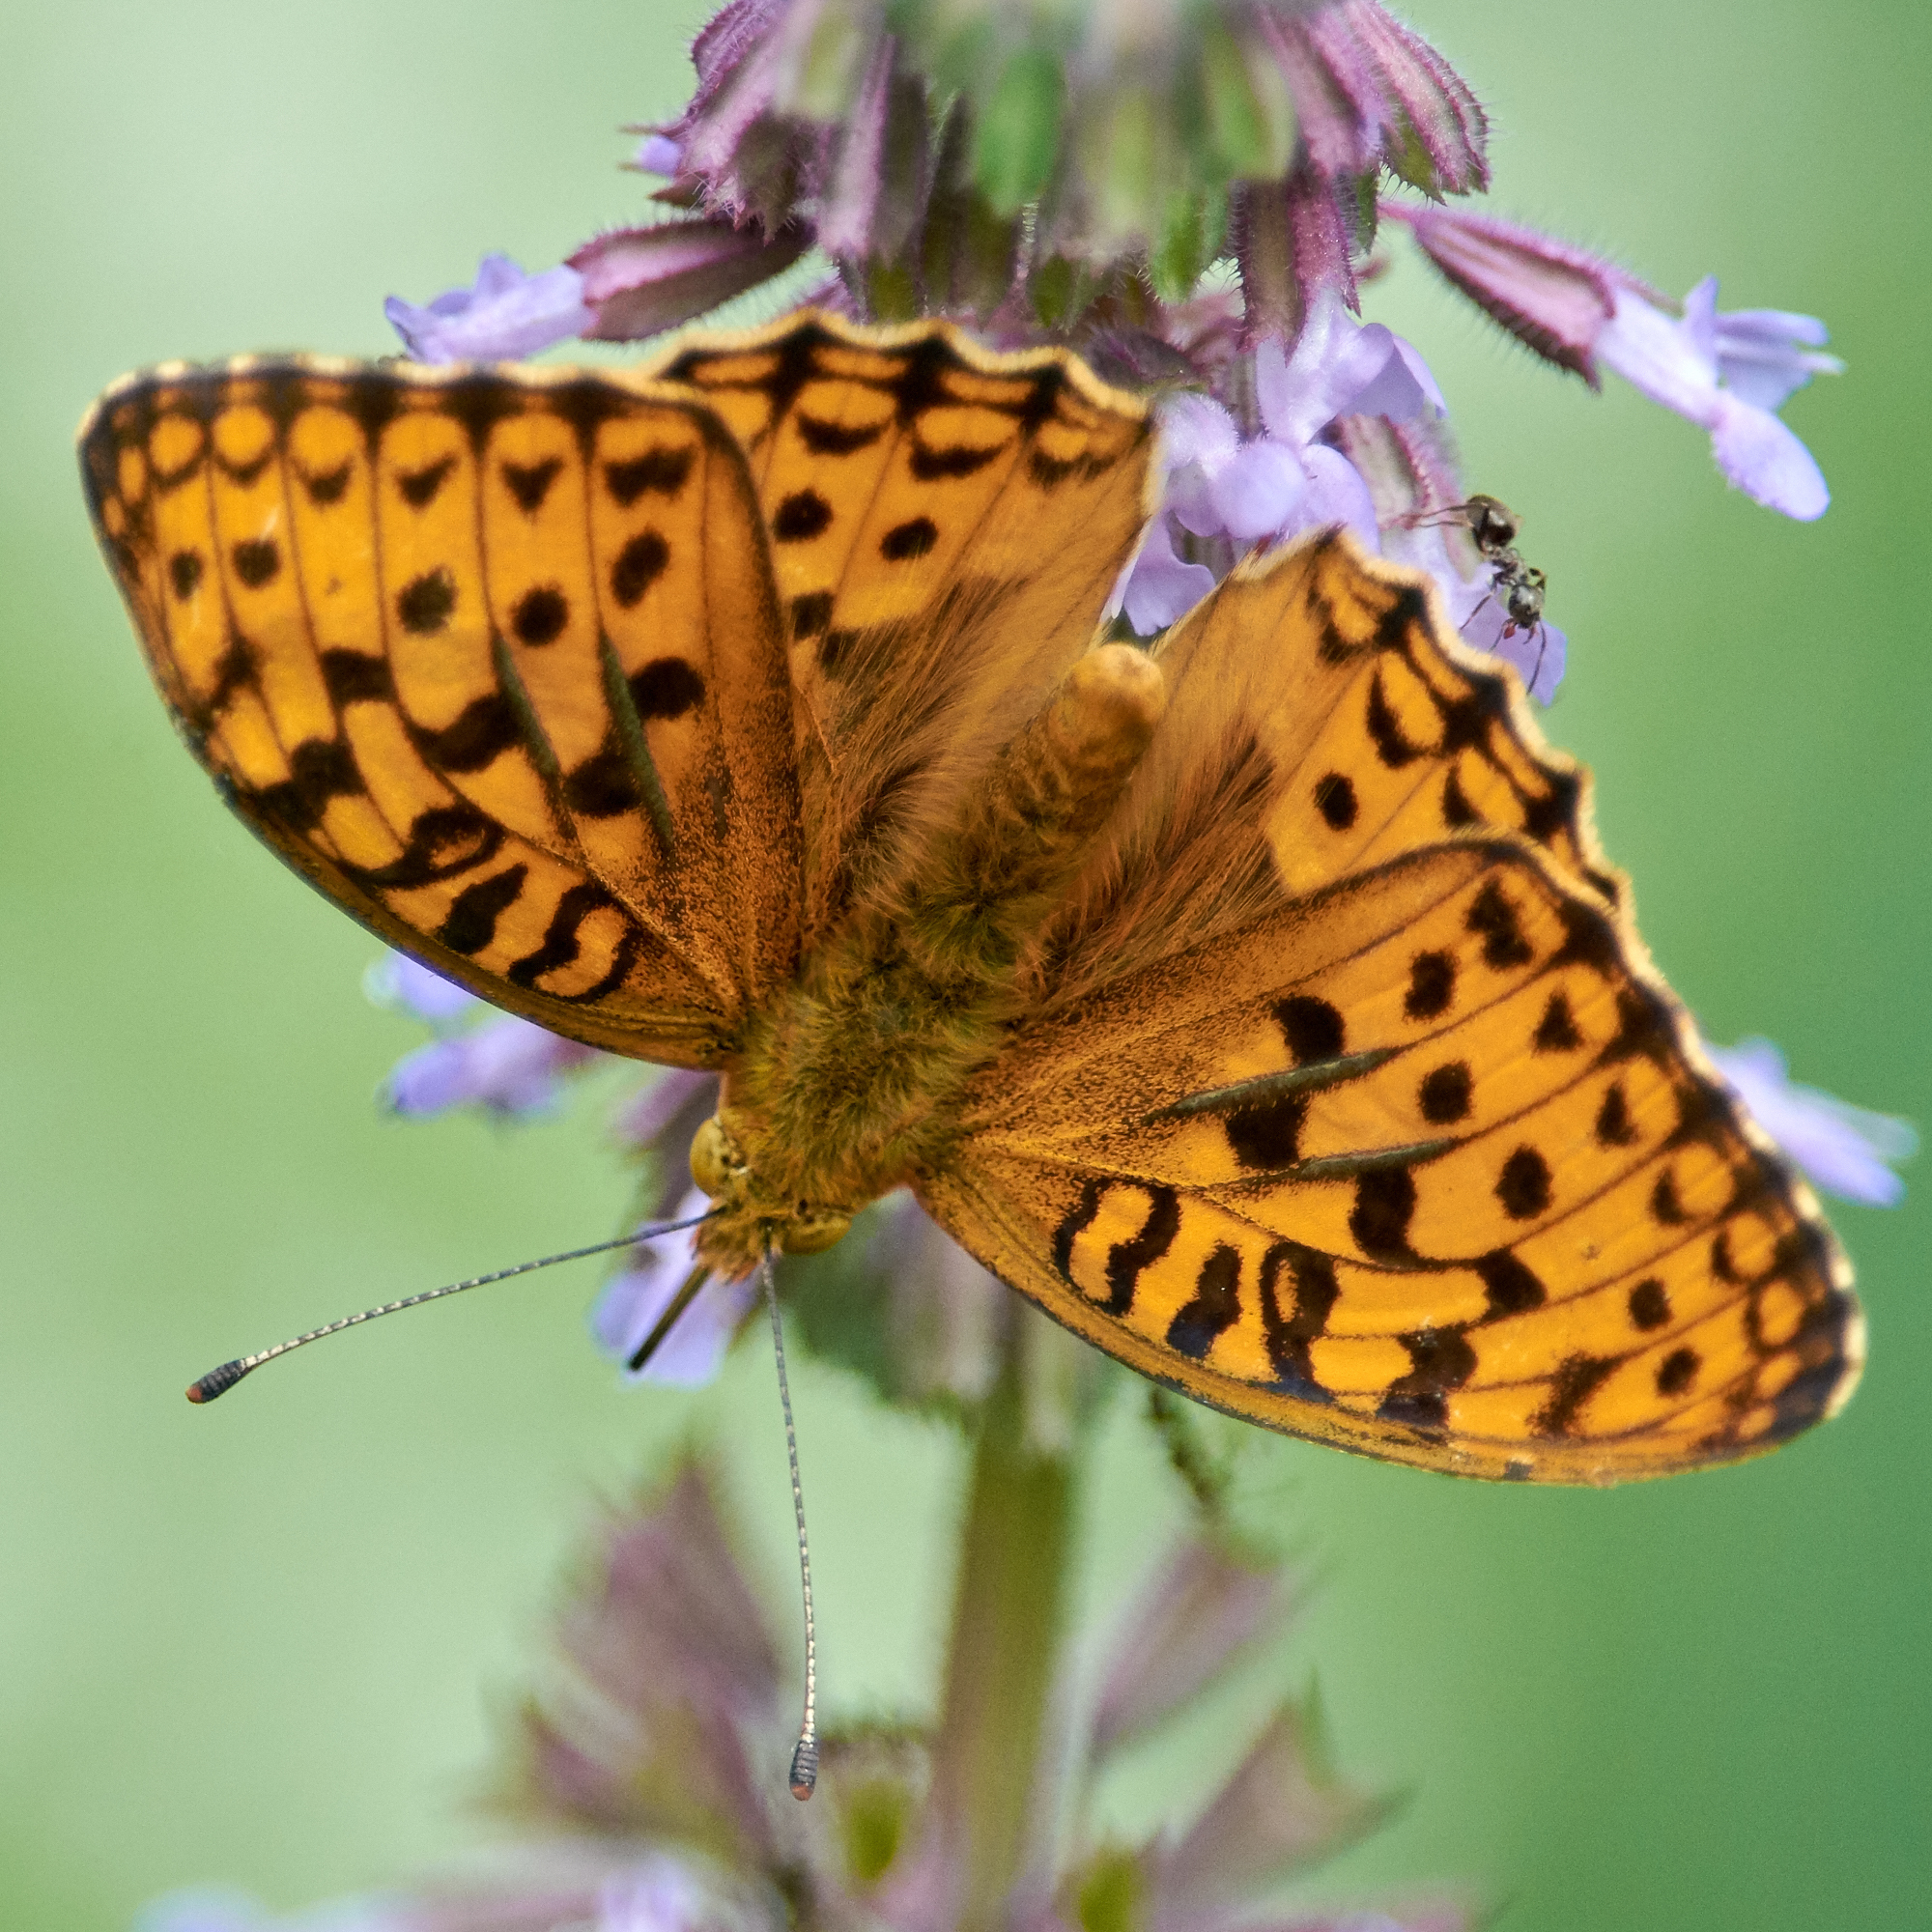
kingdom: Animalia
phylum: Arthropoda
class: Insecta
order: Lepidoptera
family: Nymphalidae
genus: Fabriciana
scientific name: Fabriciana adippe
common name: High brown fritillary
